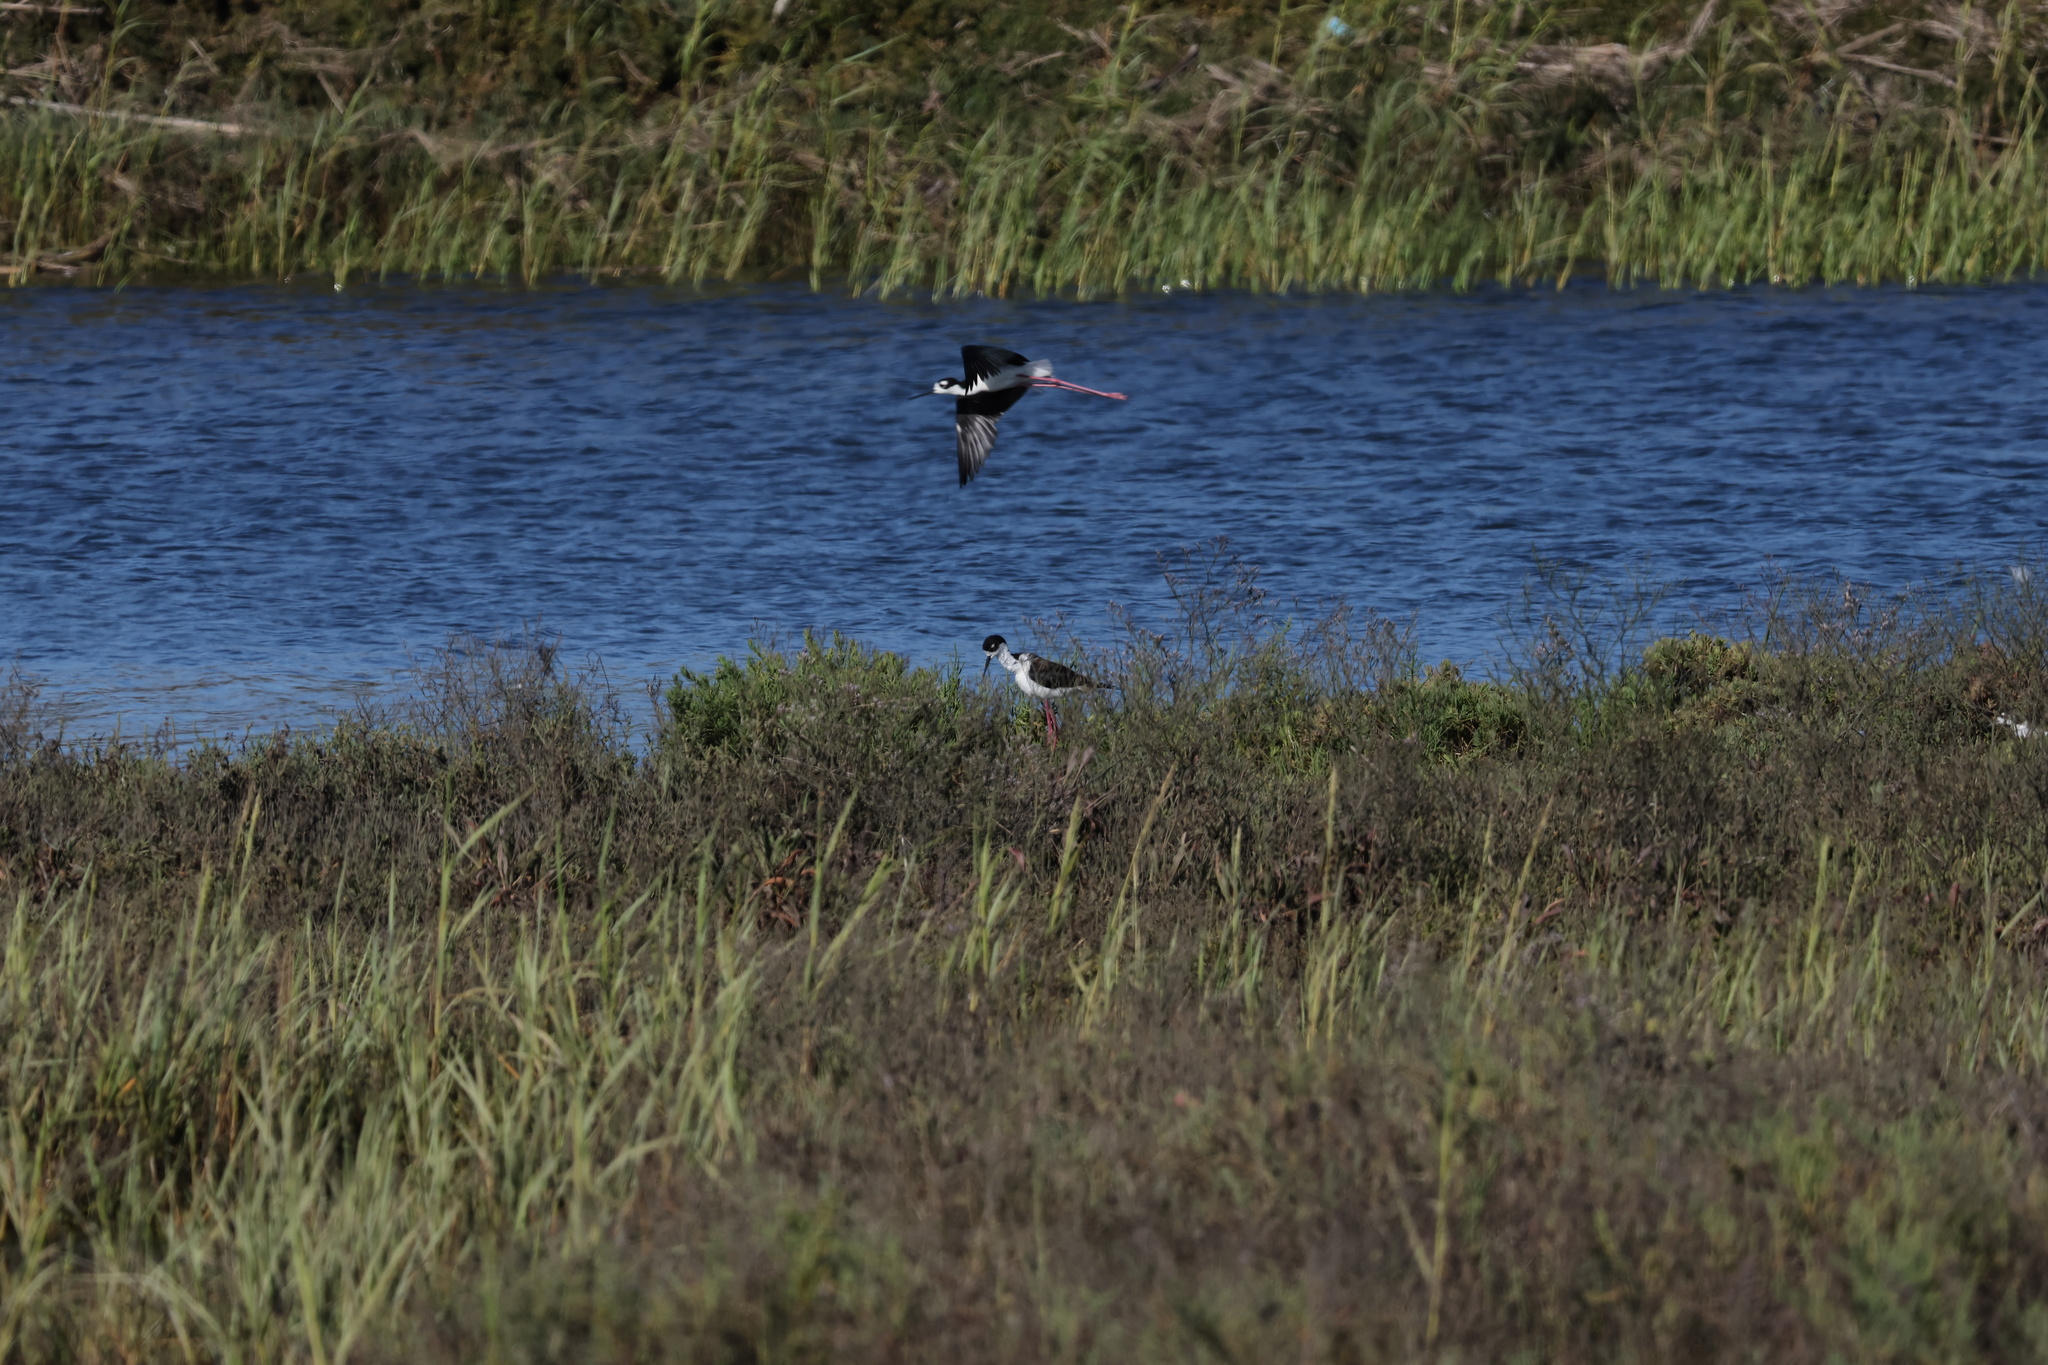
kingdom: Animalia
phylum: Chordata
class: Aves
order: Charadriiformes
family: Recurvirostridae
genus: Himantopus
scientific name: Himantopus mexicanus
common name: Black-necked stilt
